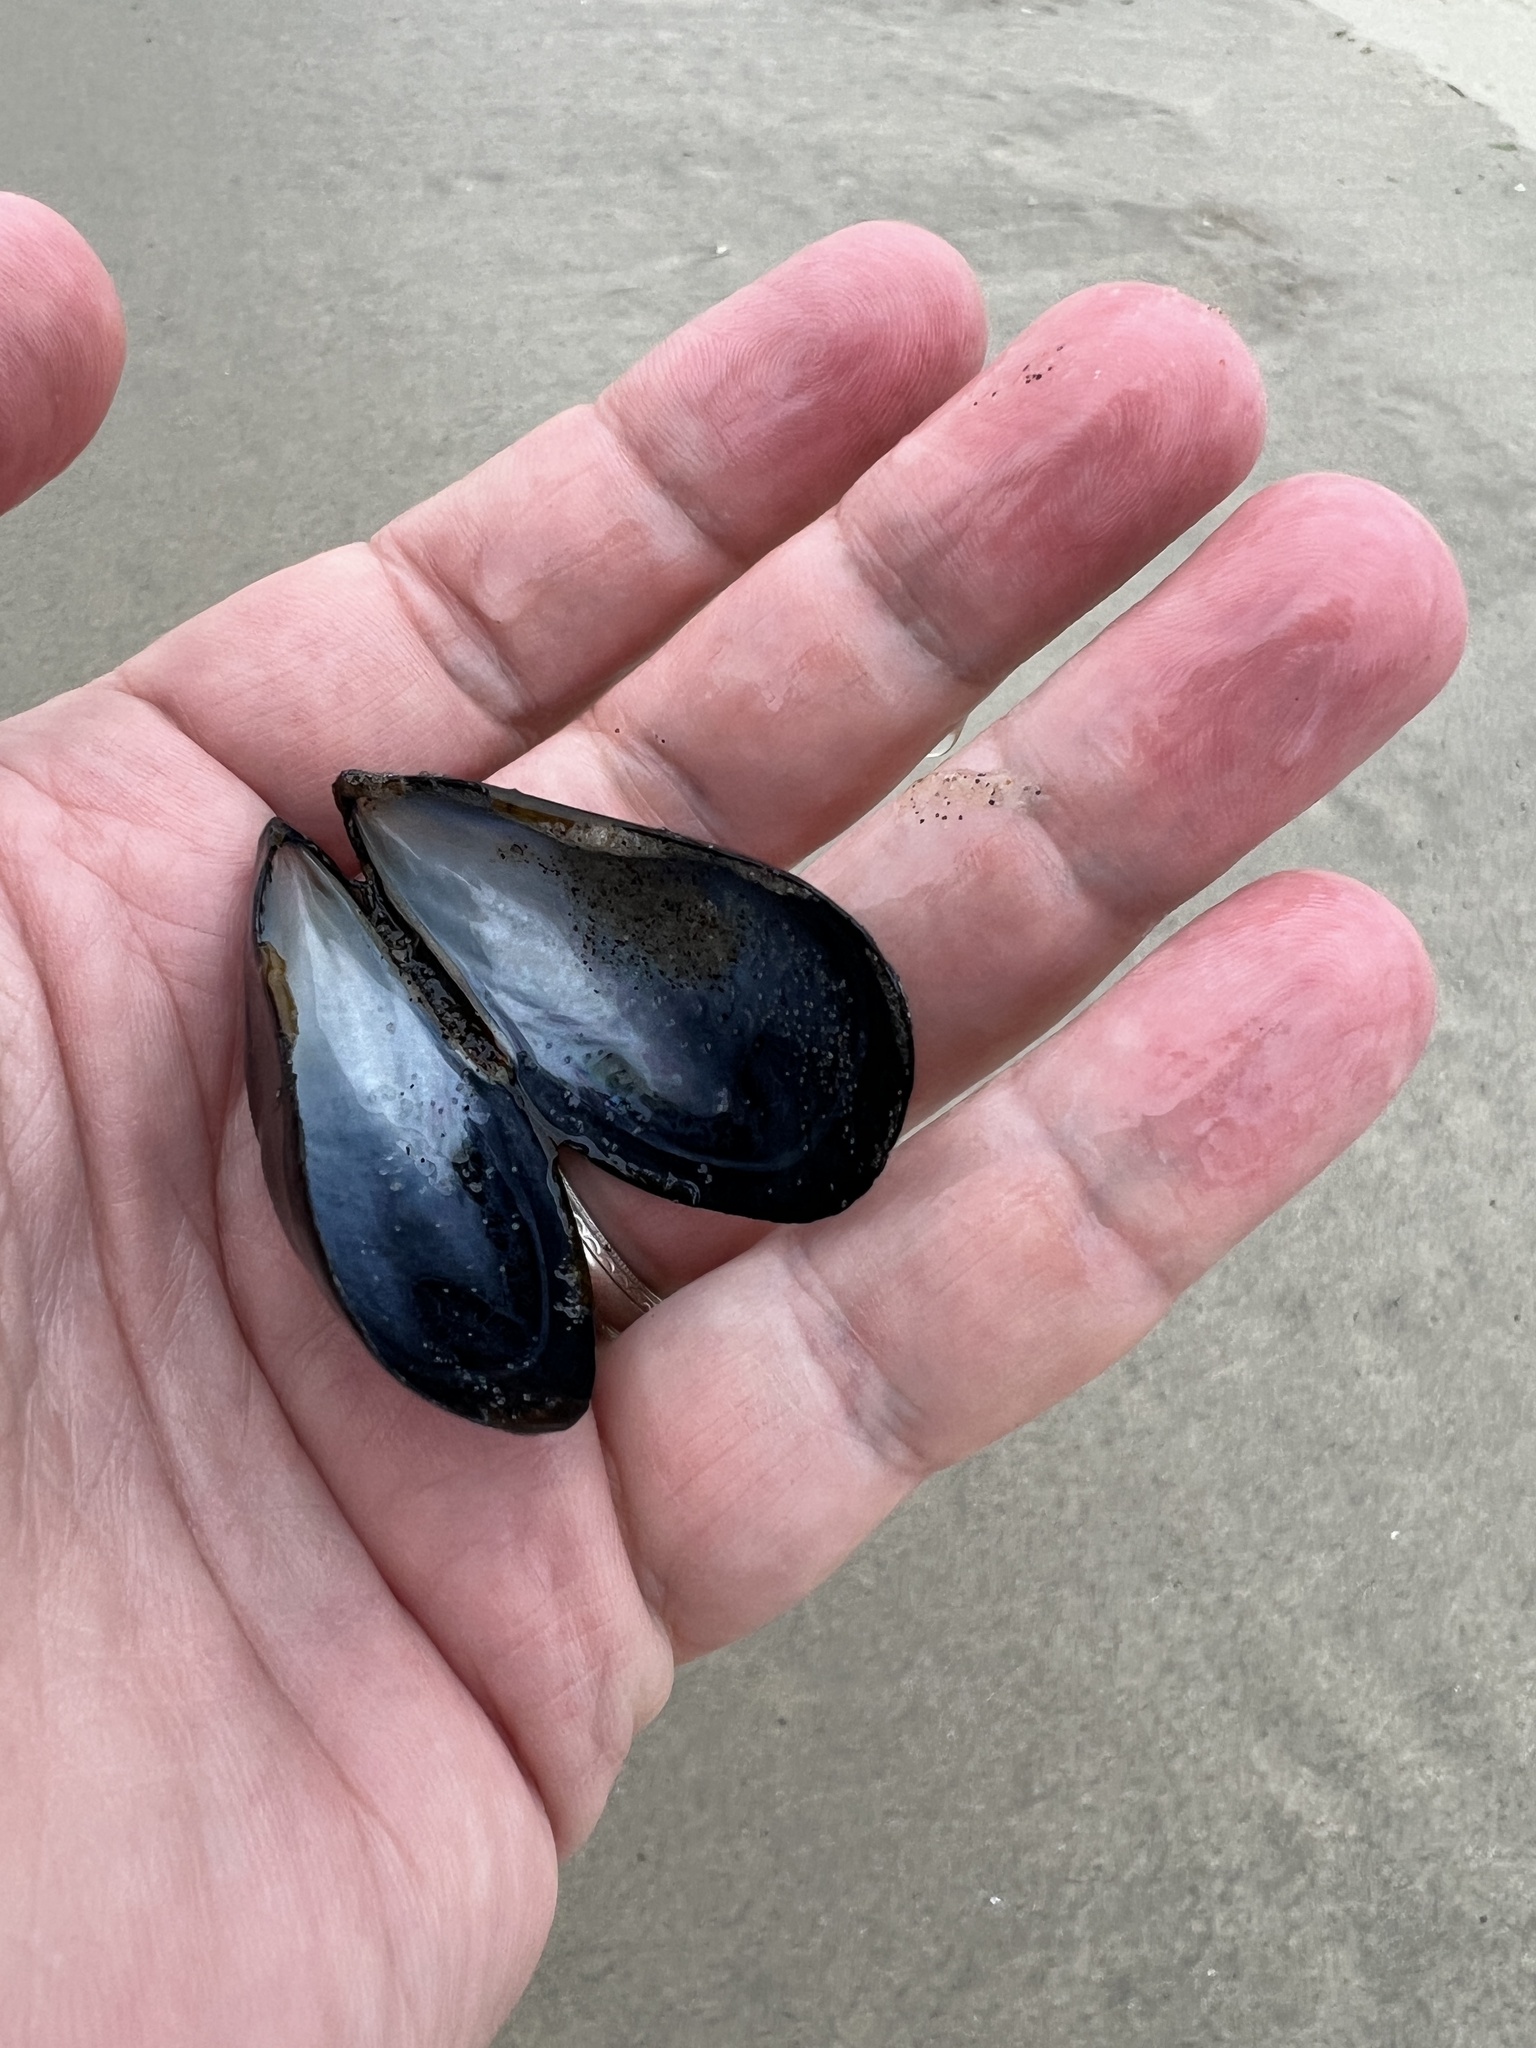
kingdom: Animalia
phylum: Mollusca
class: Bivalvia
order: Mytilida
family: Mytilidae
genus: Mytilus
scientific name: Mytilus edulis
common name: Blue mussel
